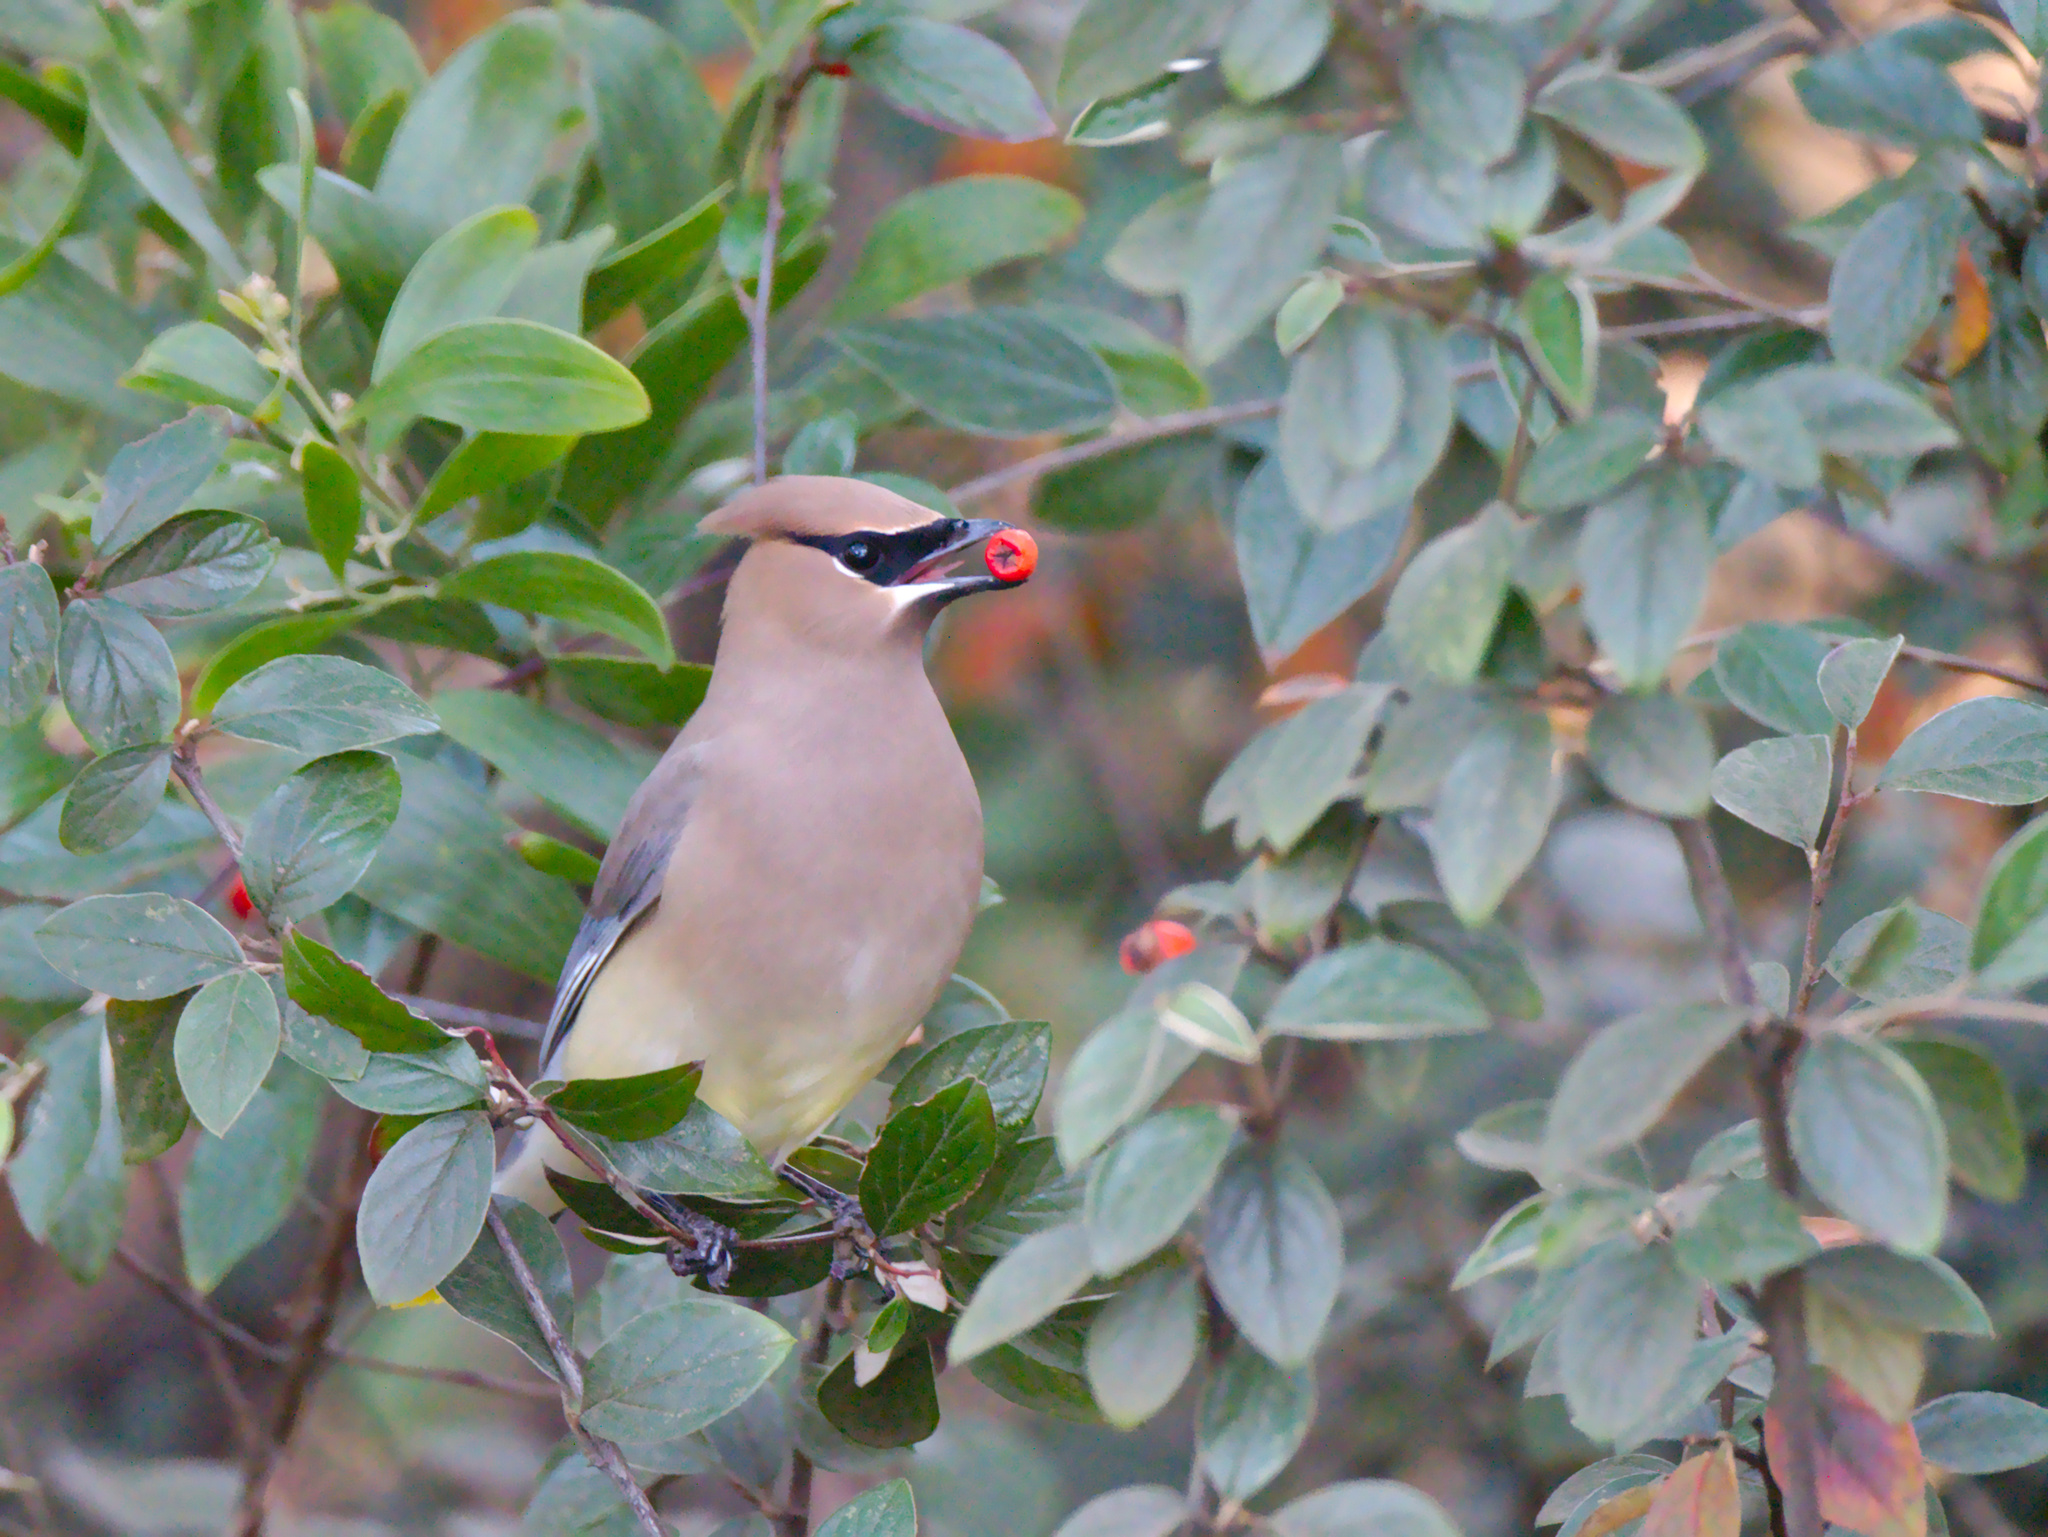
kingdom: Animalia
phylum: Chordata
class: Aves
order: Passeriformes
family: Bombycillidae
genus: Bombycilla
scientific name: Bombycilla cedrorum
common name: Cedar waxwing
